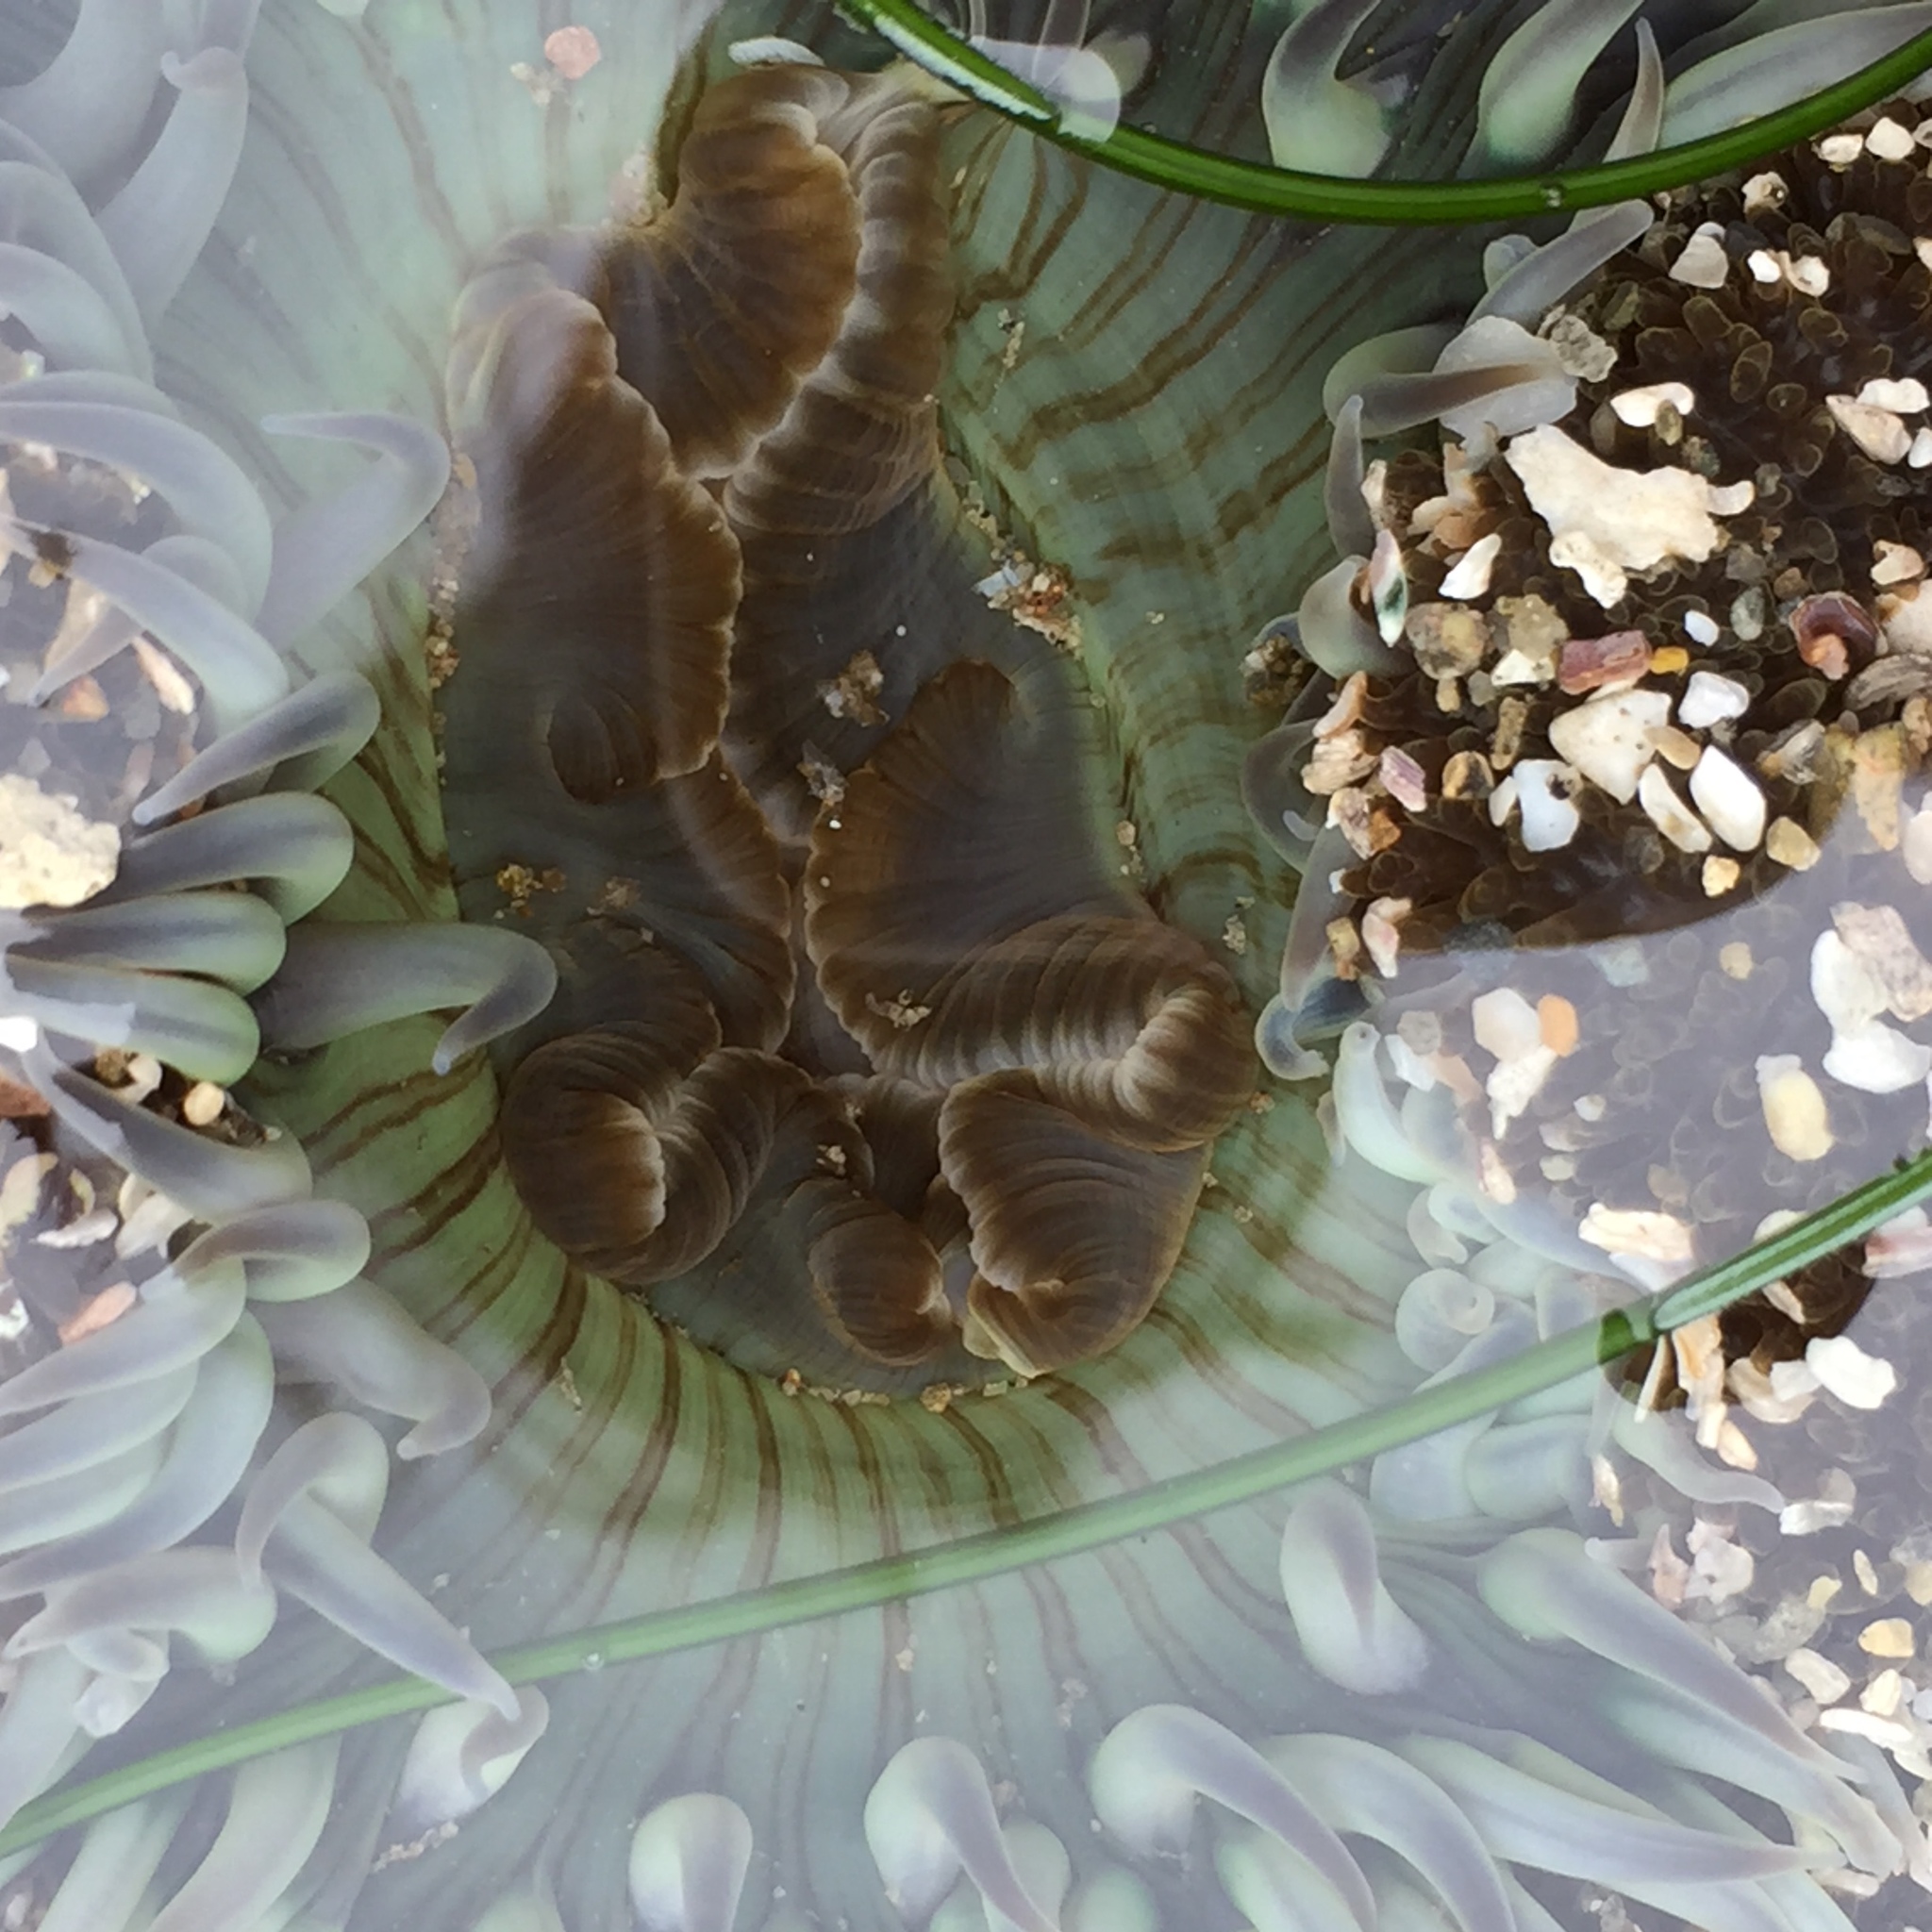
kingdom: Animalia
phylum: Cnidaria
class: Anthozoa
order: Actiniaria
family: Actiniidae
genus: Anthopleura
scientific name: Anthopleura sola
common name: Sun anemone
